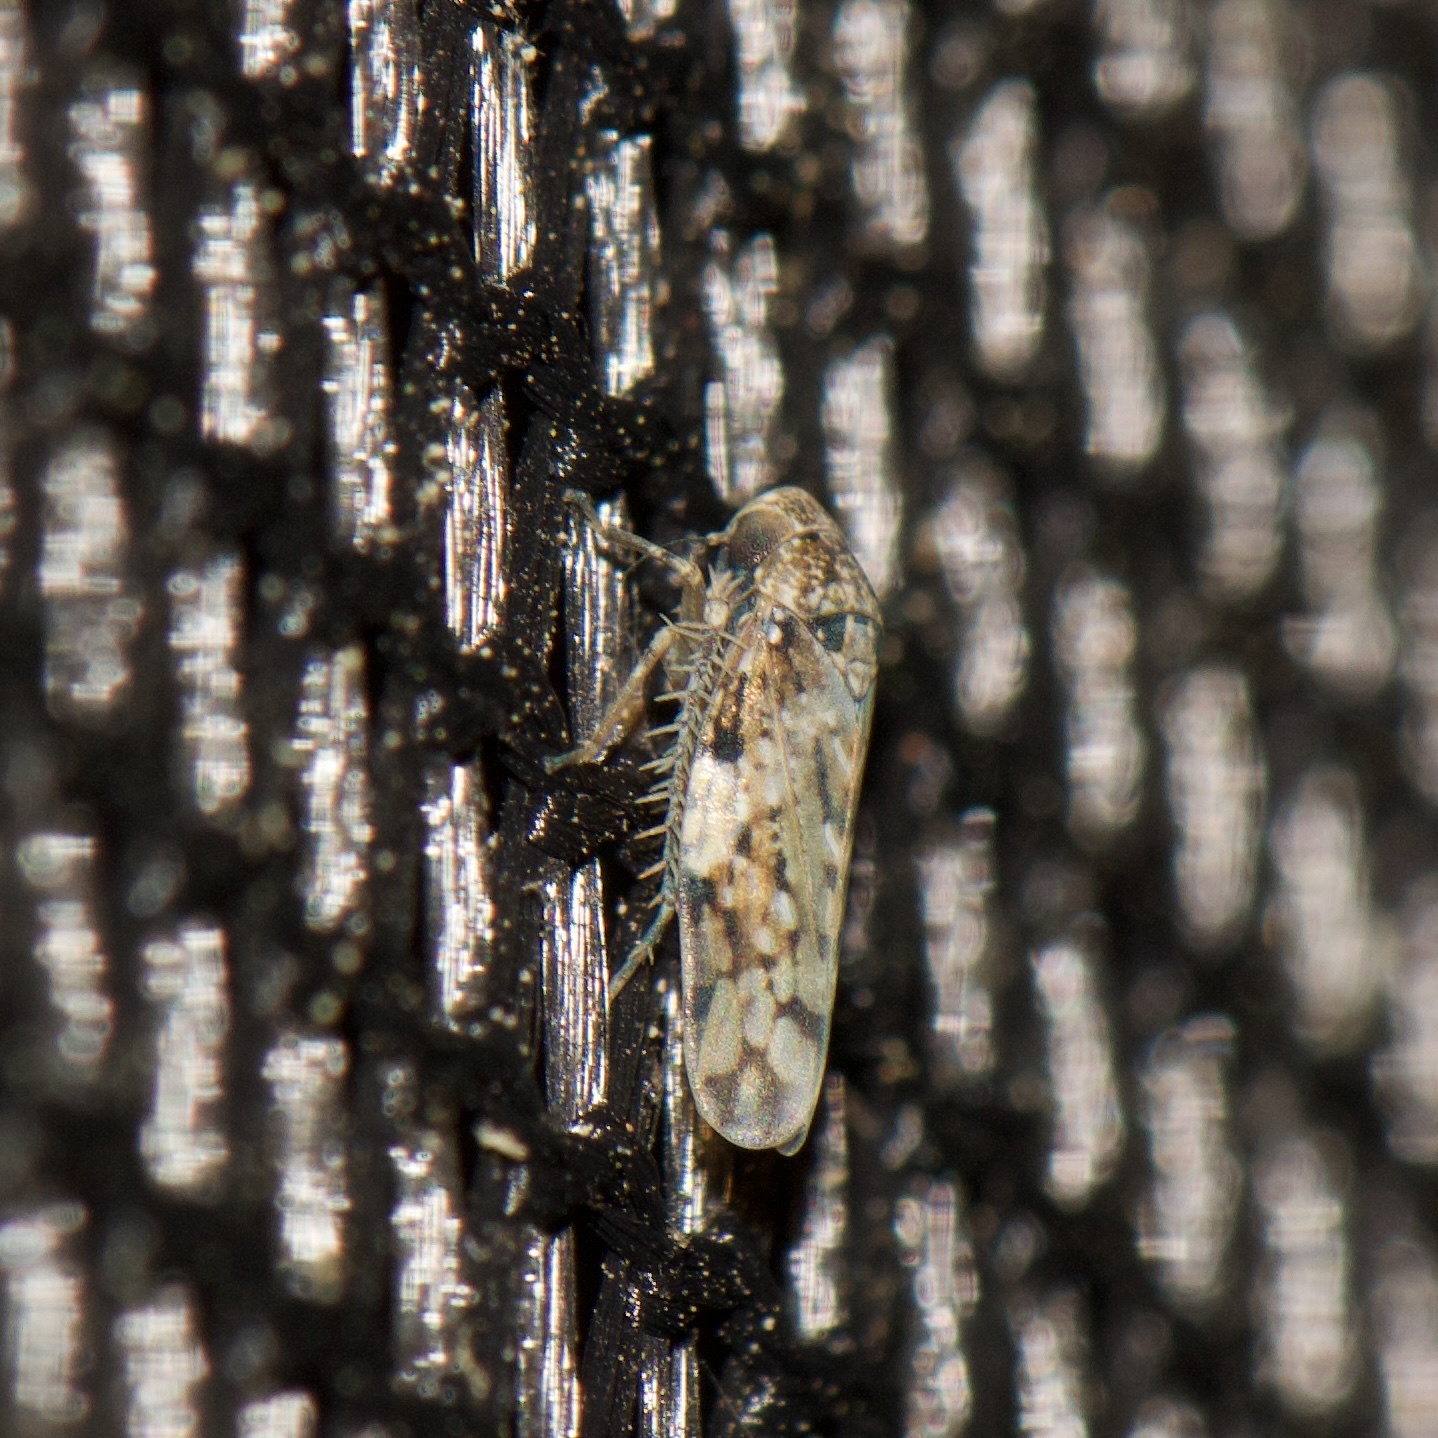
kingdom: Animalia
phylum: Arthropoda
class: Insecta
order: Hemiptera
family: Cicadellidae
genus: Xestocephalus
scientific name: Xestocephalus tessellatus
